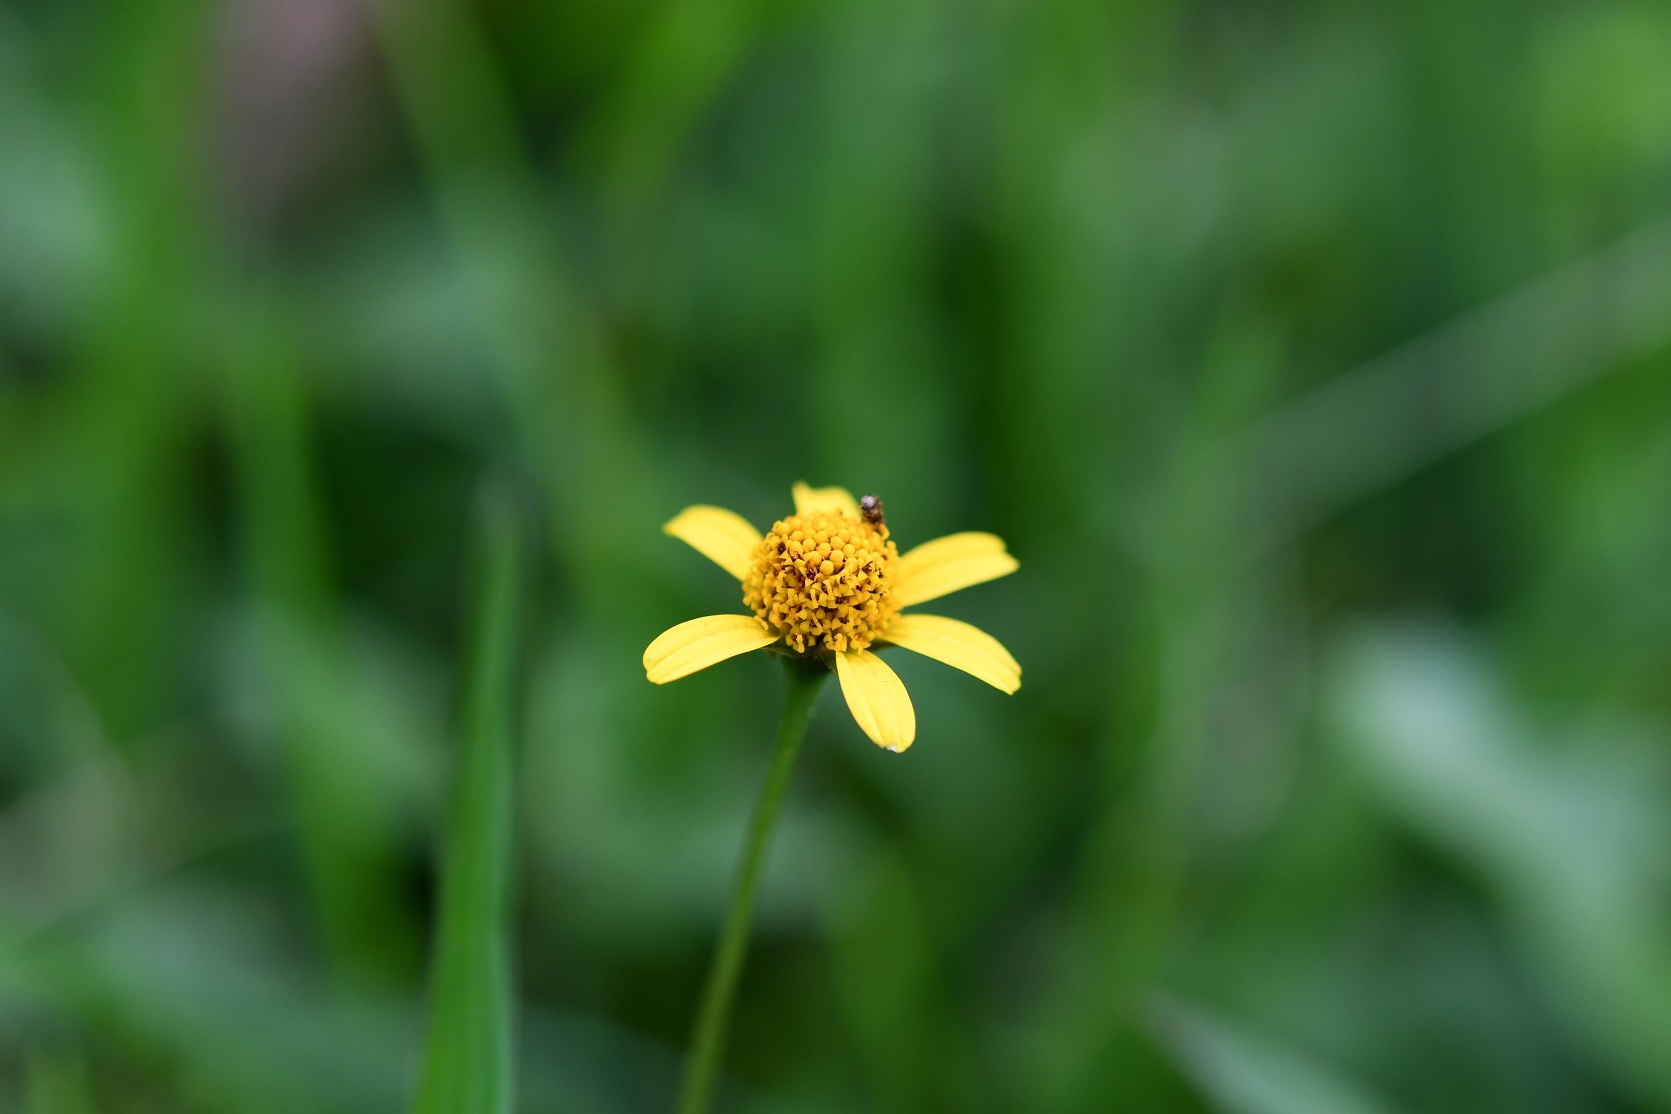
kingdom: Plantae
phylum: Tracheophyta
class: Magnoliopsida
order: Asterales
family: Asteraceae
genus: Acmella
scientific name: Acmella repens
